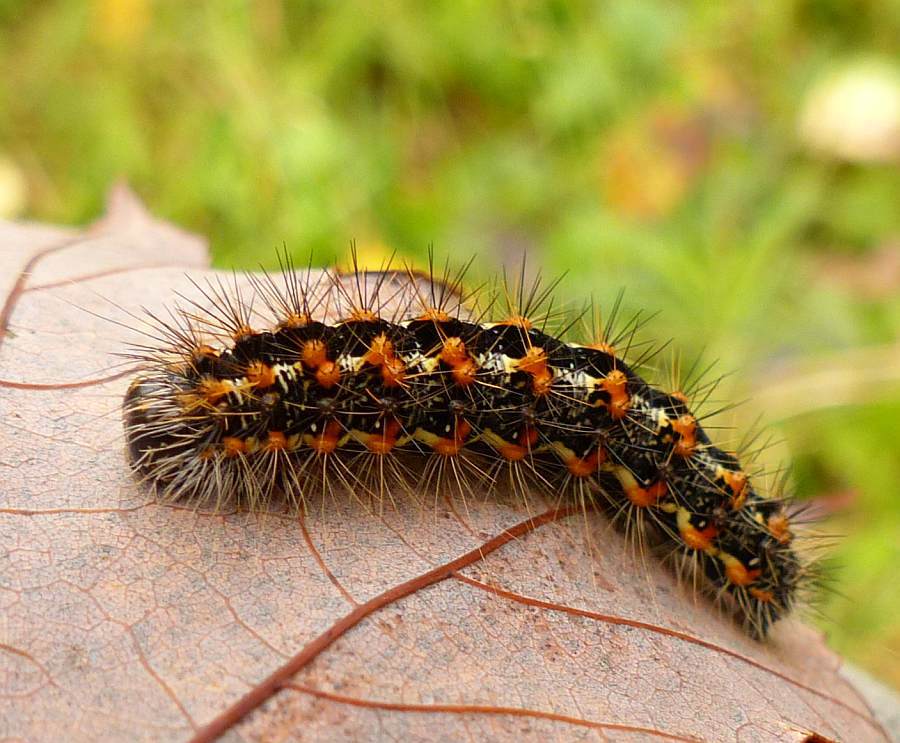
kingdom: Animalia
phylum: Arthropoda
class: Insecta
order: Lepidoptera
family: Noctuidae
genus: Acronicta
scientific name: Acronicta insularis
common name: Henry's marsh moth
